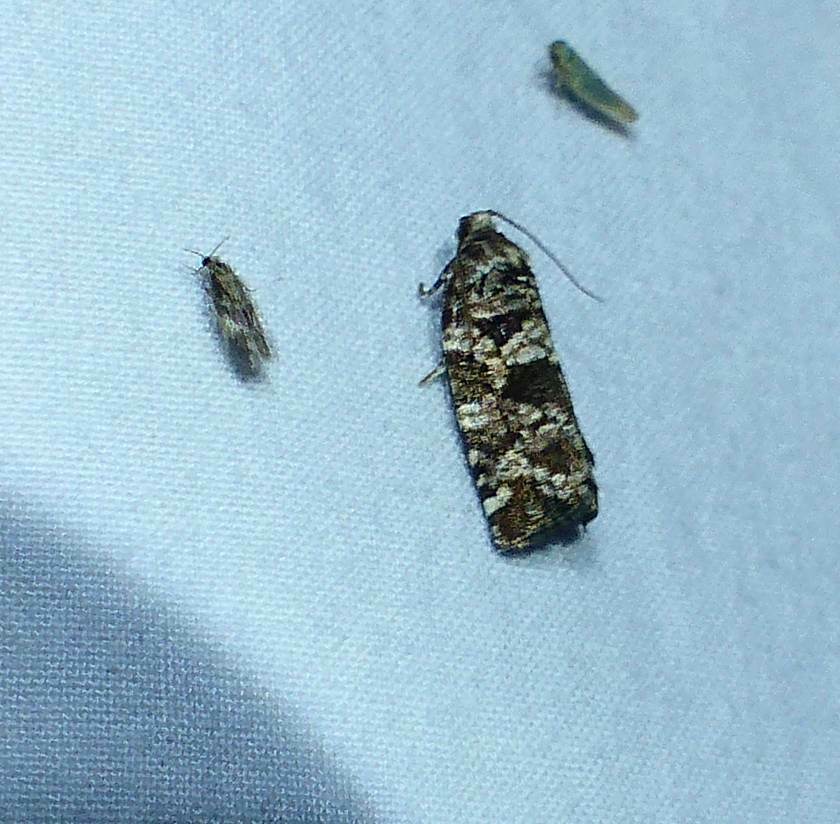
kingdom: Animalia
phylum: Arthropoda
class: Insecta
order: Lepidoptera
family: Tortricidae
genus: Archips
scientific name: Archips packardiana
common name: Spring spruce needle moth
